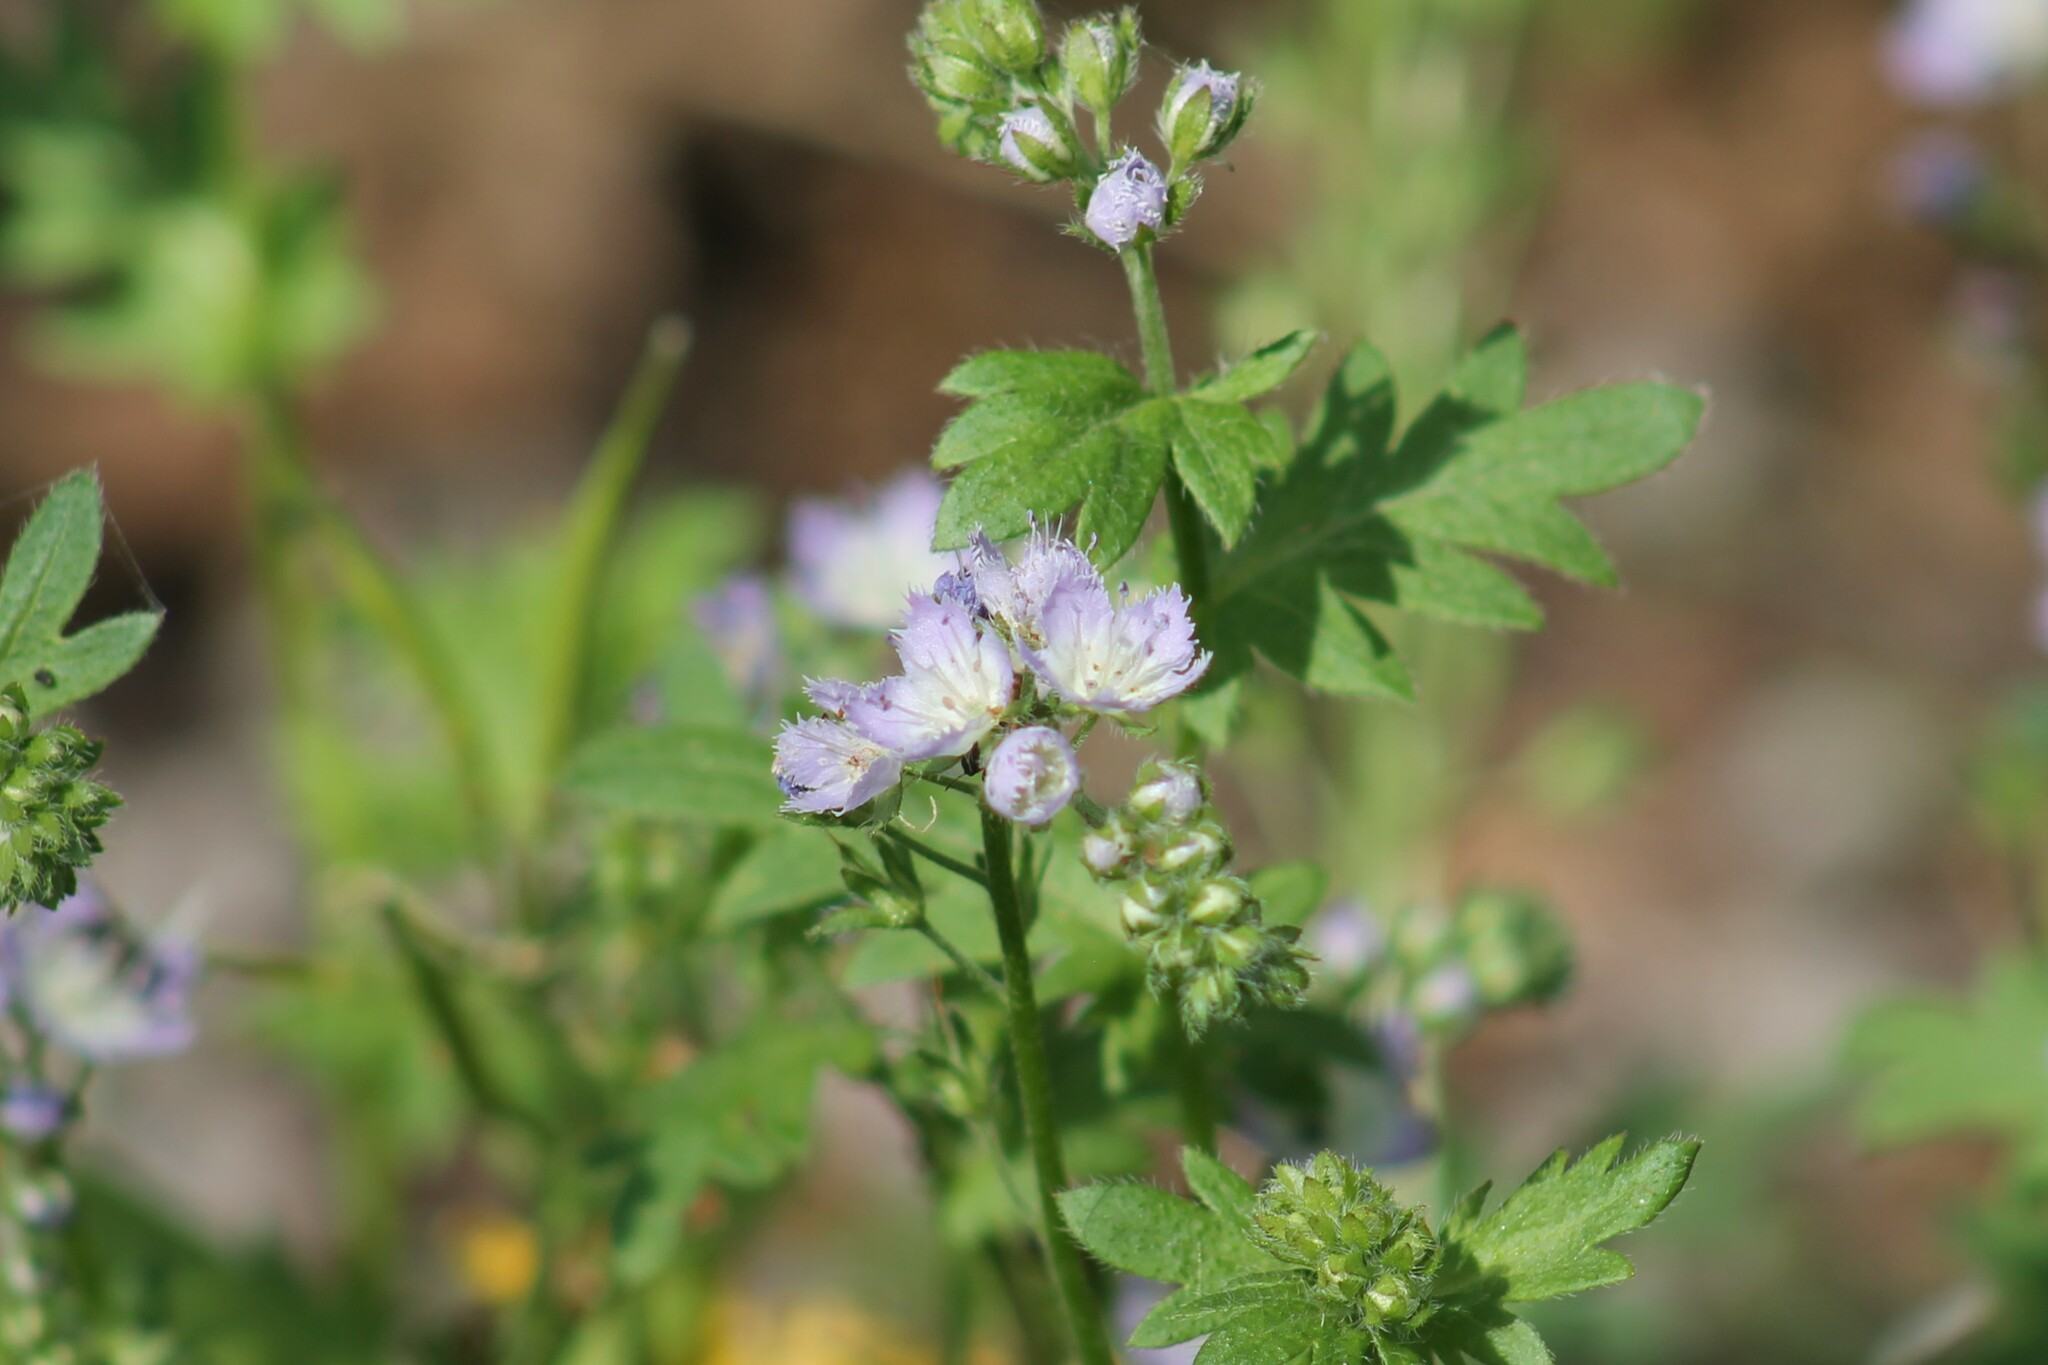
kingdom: Plantae
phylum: Tracheophyta
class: Magnoliopsida
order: Boraginales
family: Hydrophyllaceae
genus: Phacelia
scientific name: Phacelia purshii
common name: Miami-mist
